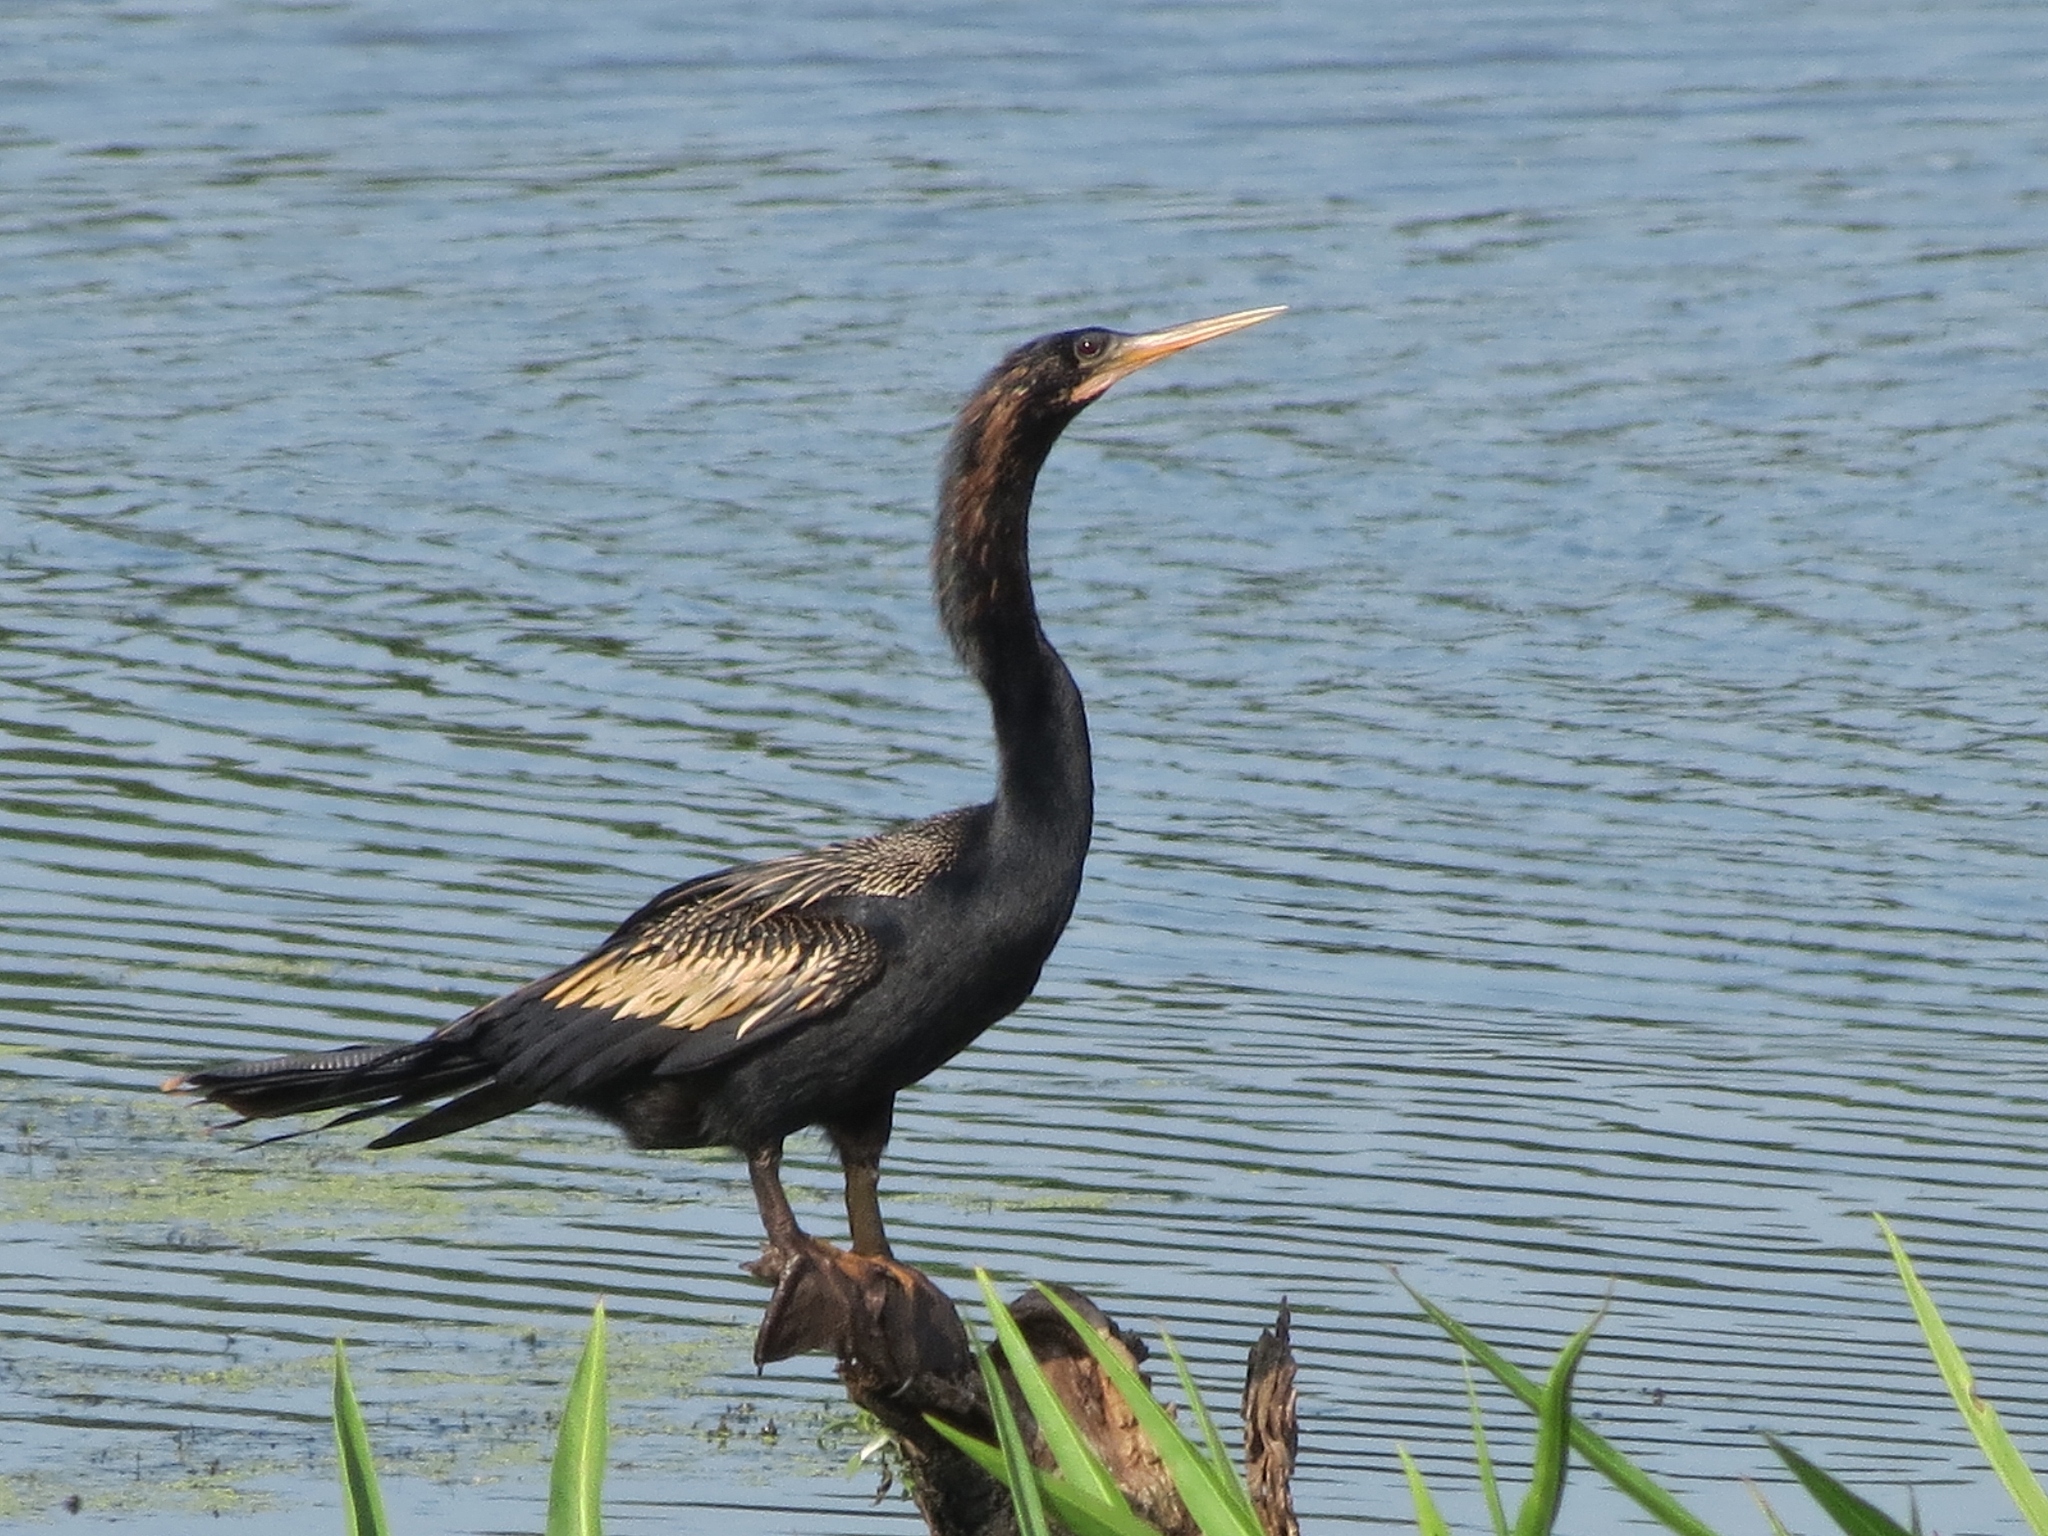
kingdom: Animalia
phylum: Chordata
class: Aves
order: Suliformes
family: Anhingidae
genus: Anhinga
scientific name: Anhinga anhinga
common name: Anhinga
